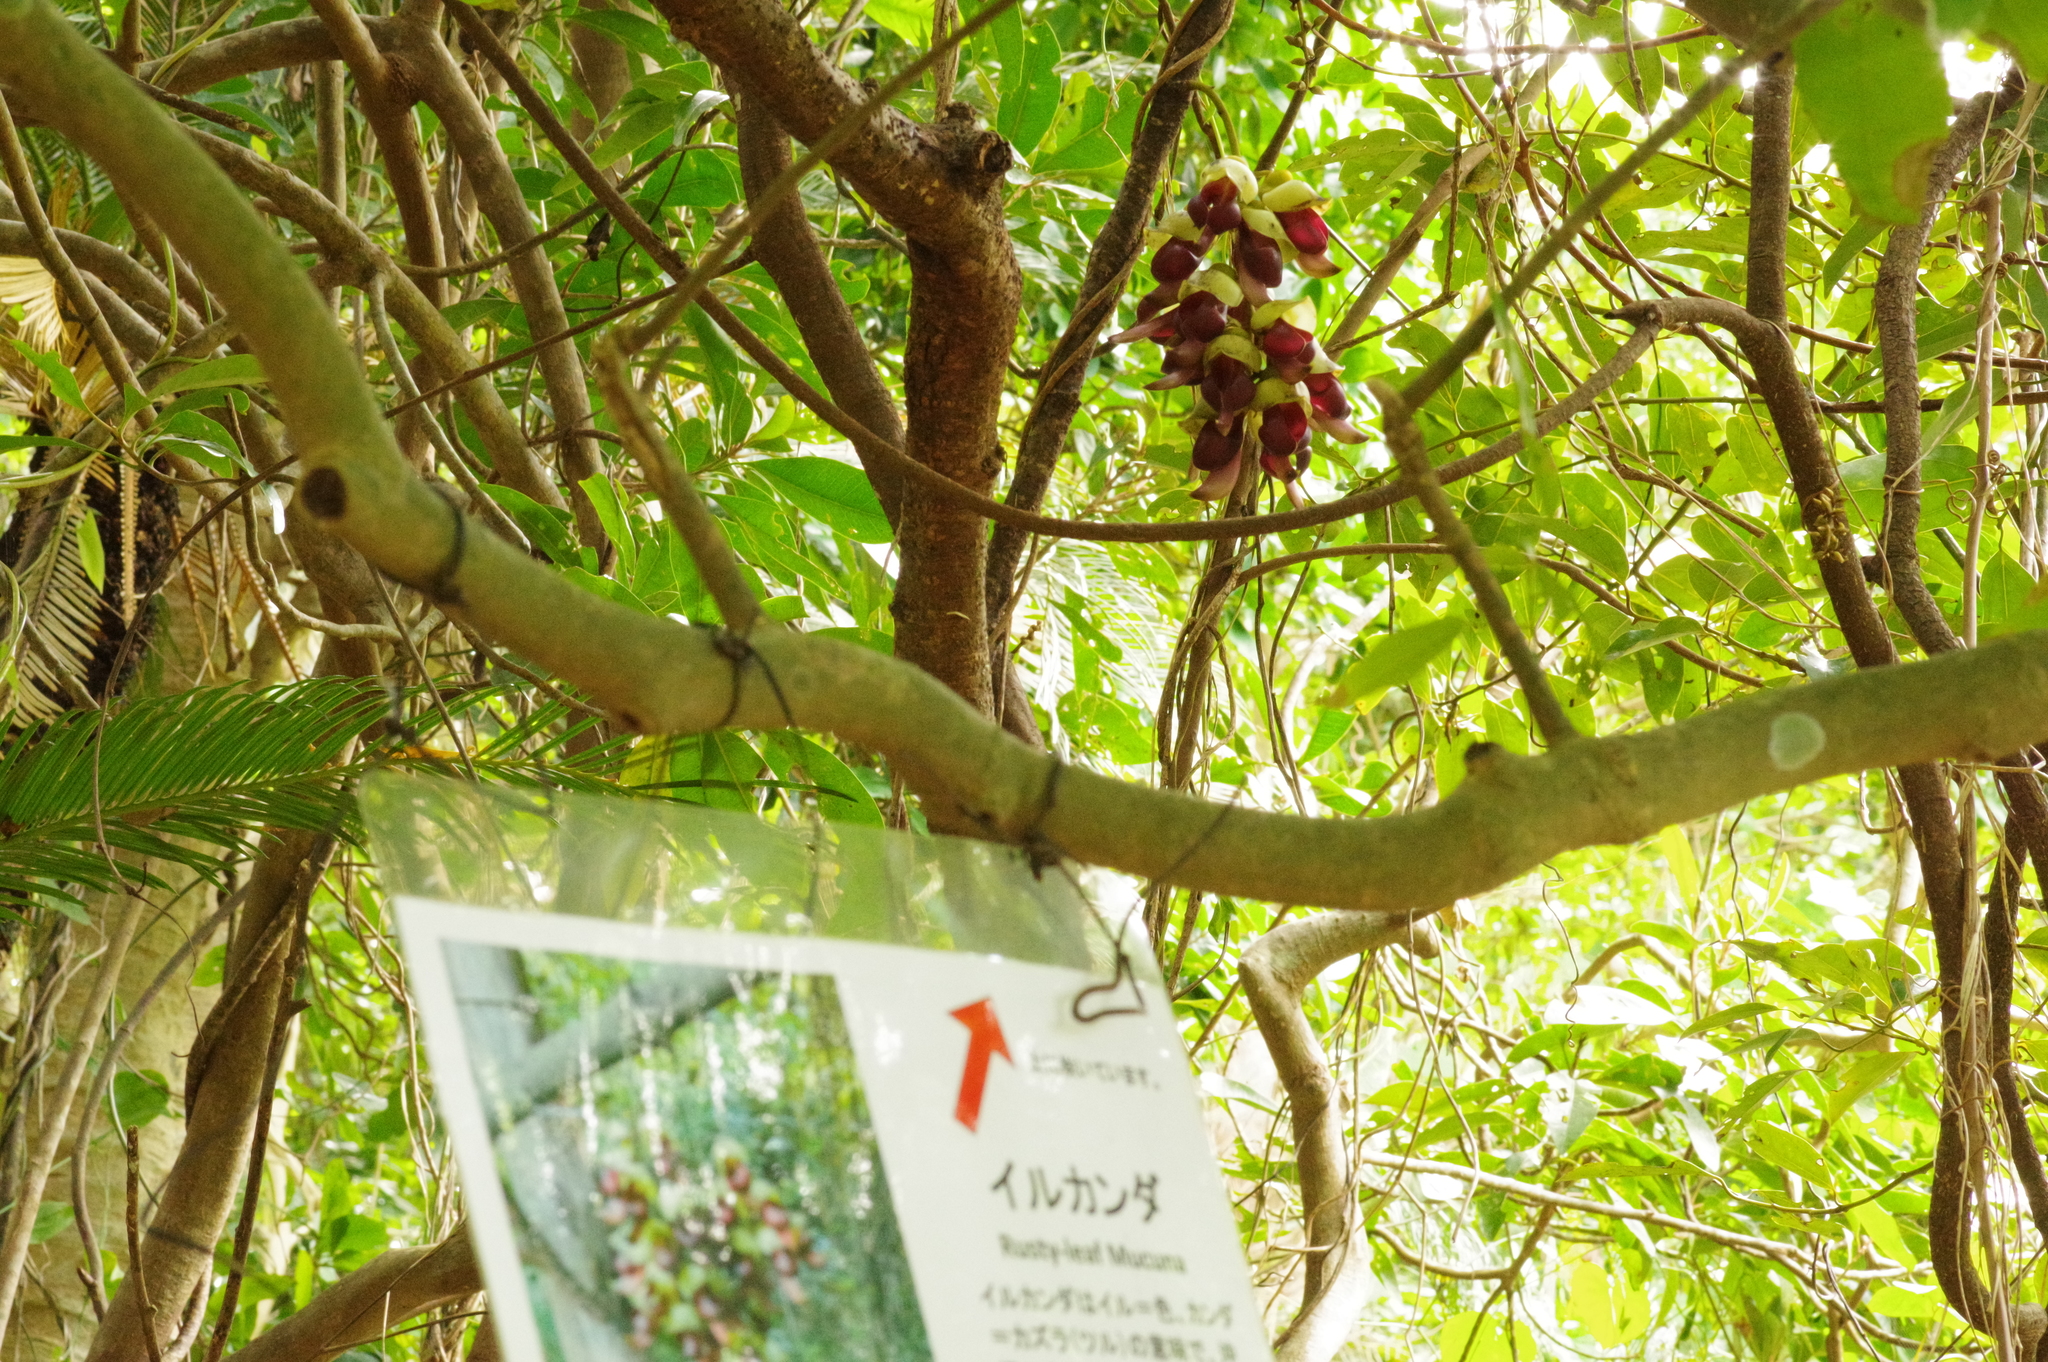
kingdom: Plantae
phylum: Tracheophyta
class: Magnoliopsida
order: Fabales
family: Fabaceae
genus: Mucuna
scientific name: Mucuna macrocarpa
